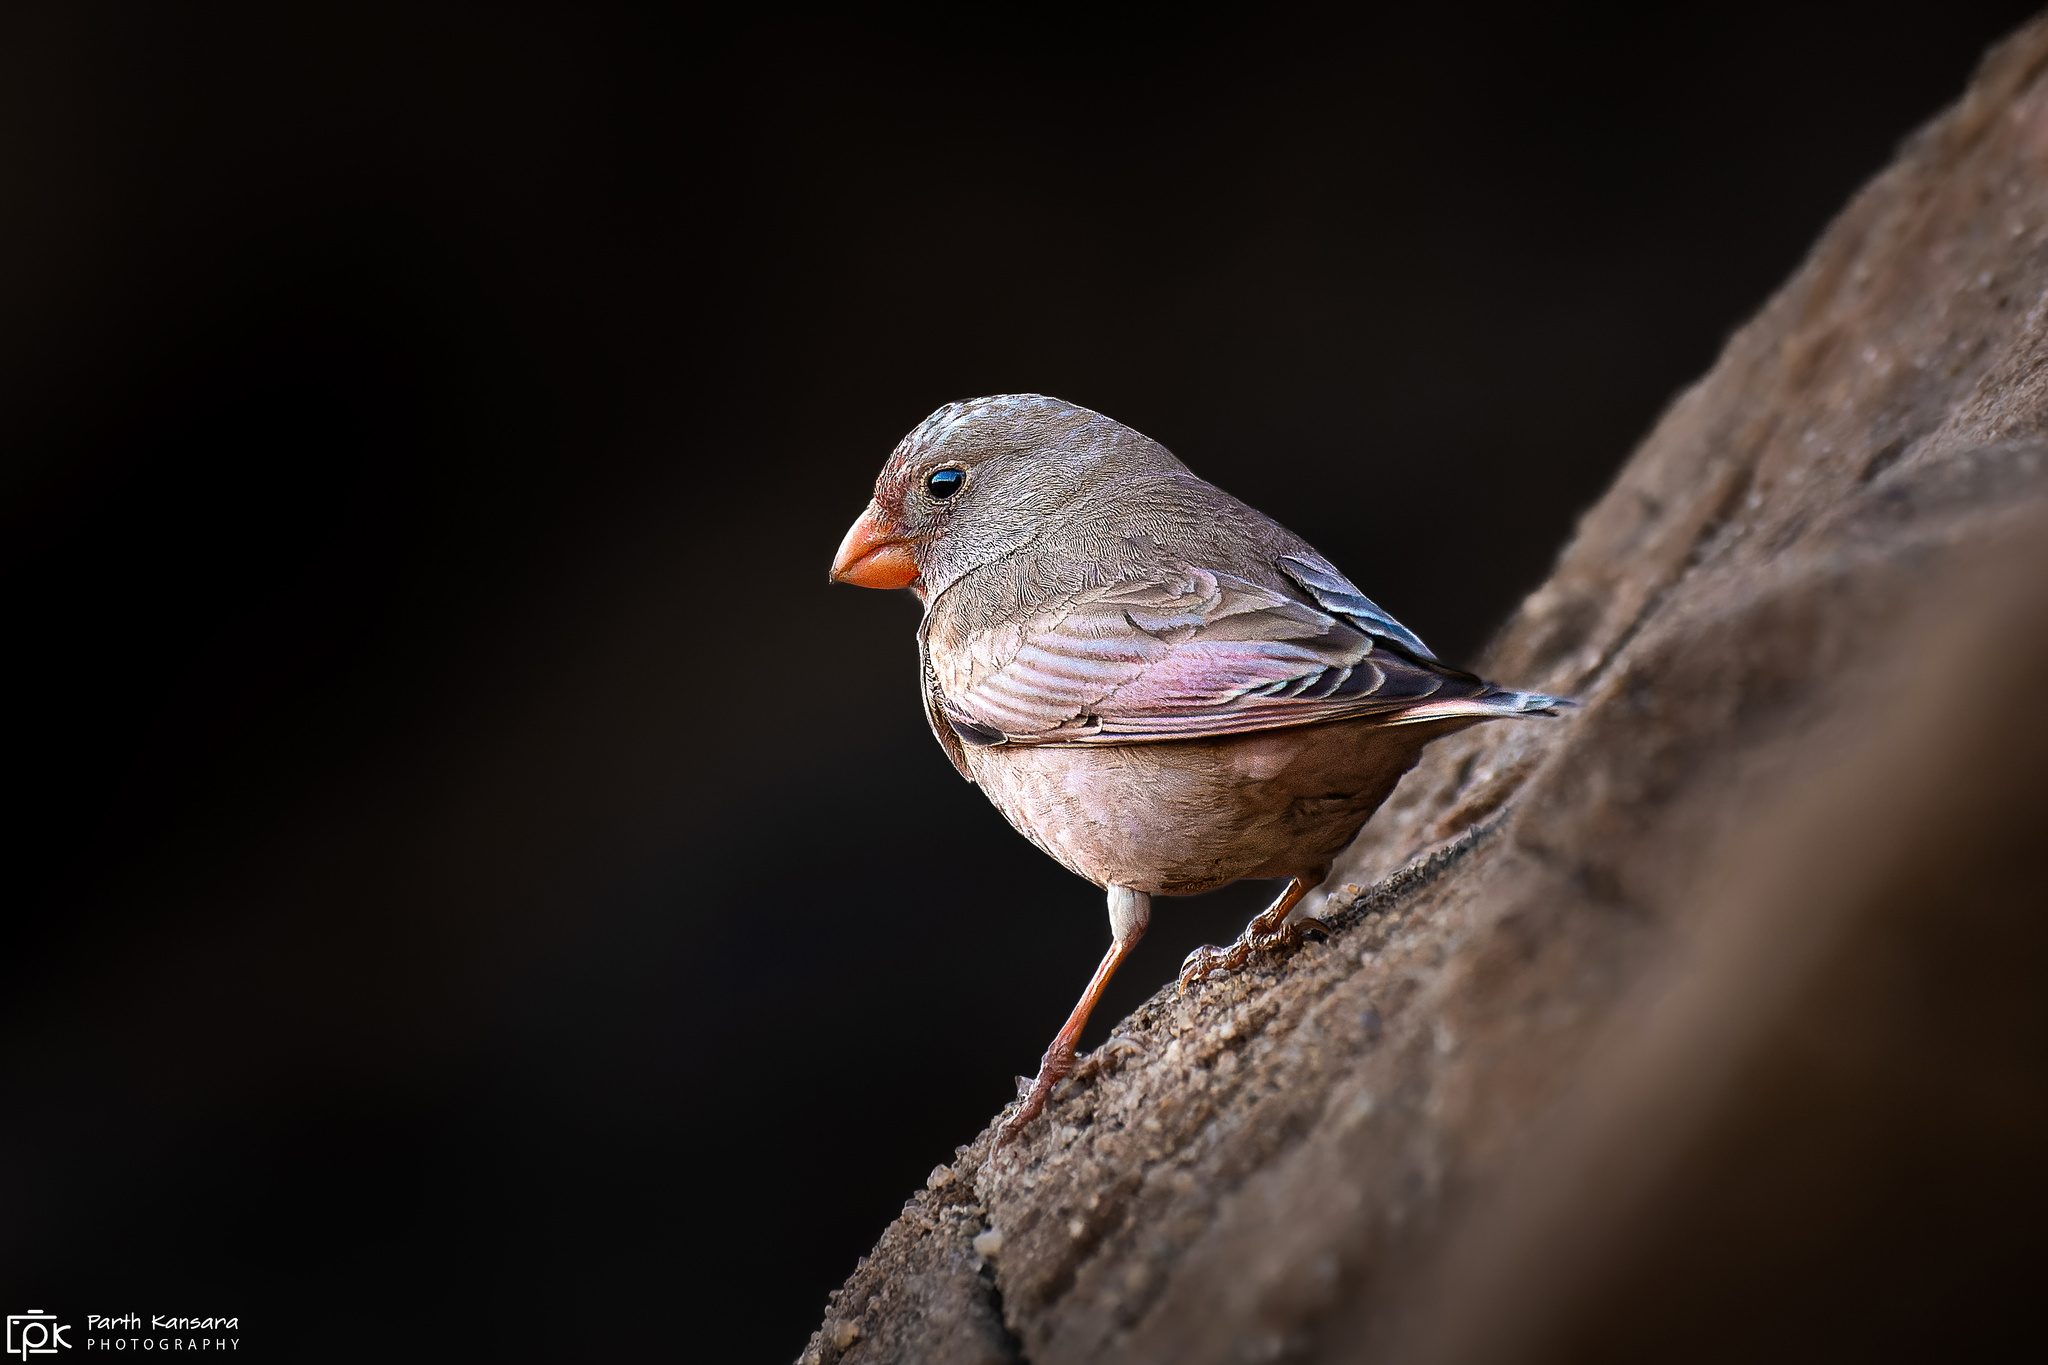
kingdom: Animalia
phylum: Chordata
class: Aves
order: Passeriformes
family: Fringillidae
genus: Bucanetes
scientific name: Bucanetes githagineus
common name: Trumpeter finch
